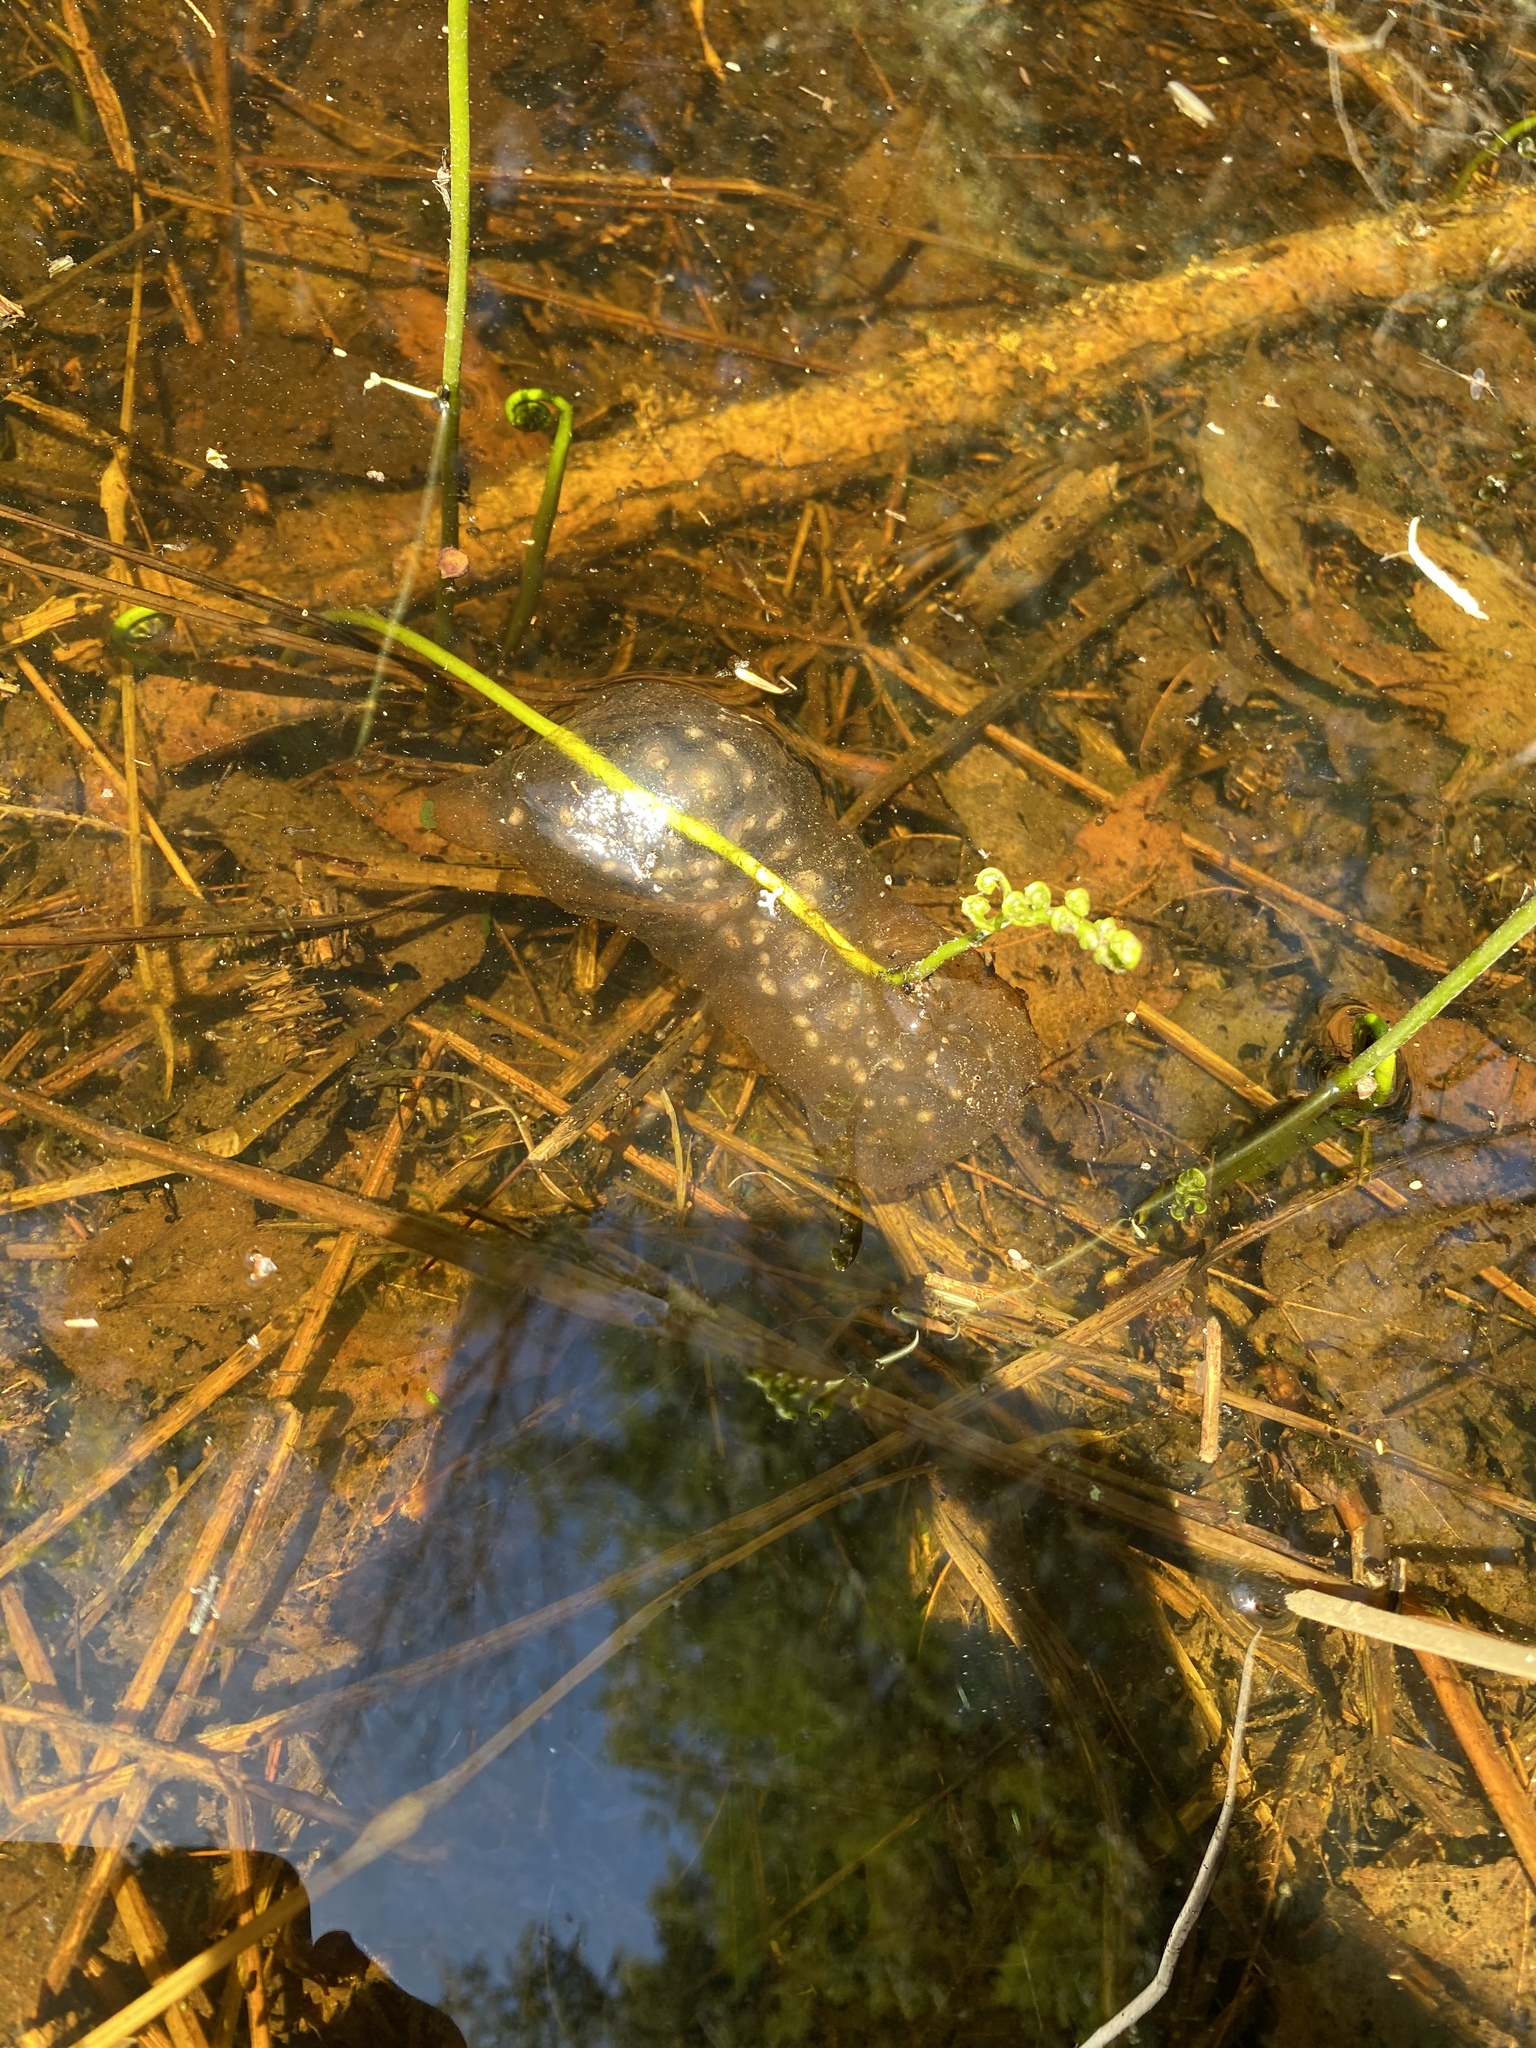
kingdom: Animalia
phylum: Chordata
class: Amphibia
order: Caudata
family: Ambystomatidae
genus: Ambystoma
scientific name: Ambystoma maculatum
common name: Spotted salamander
